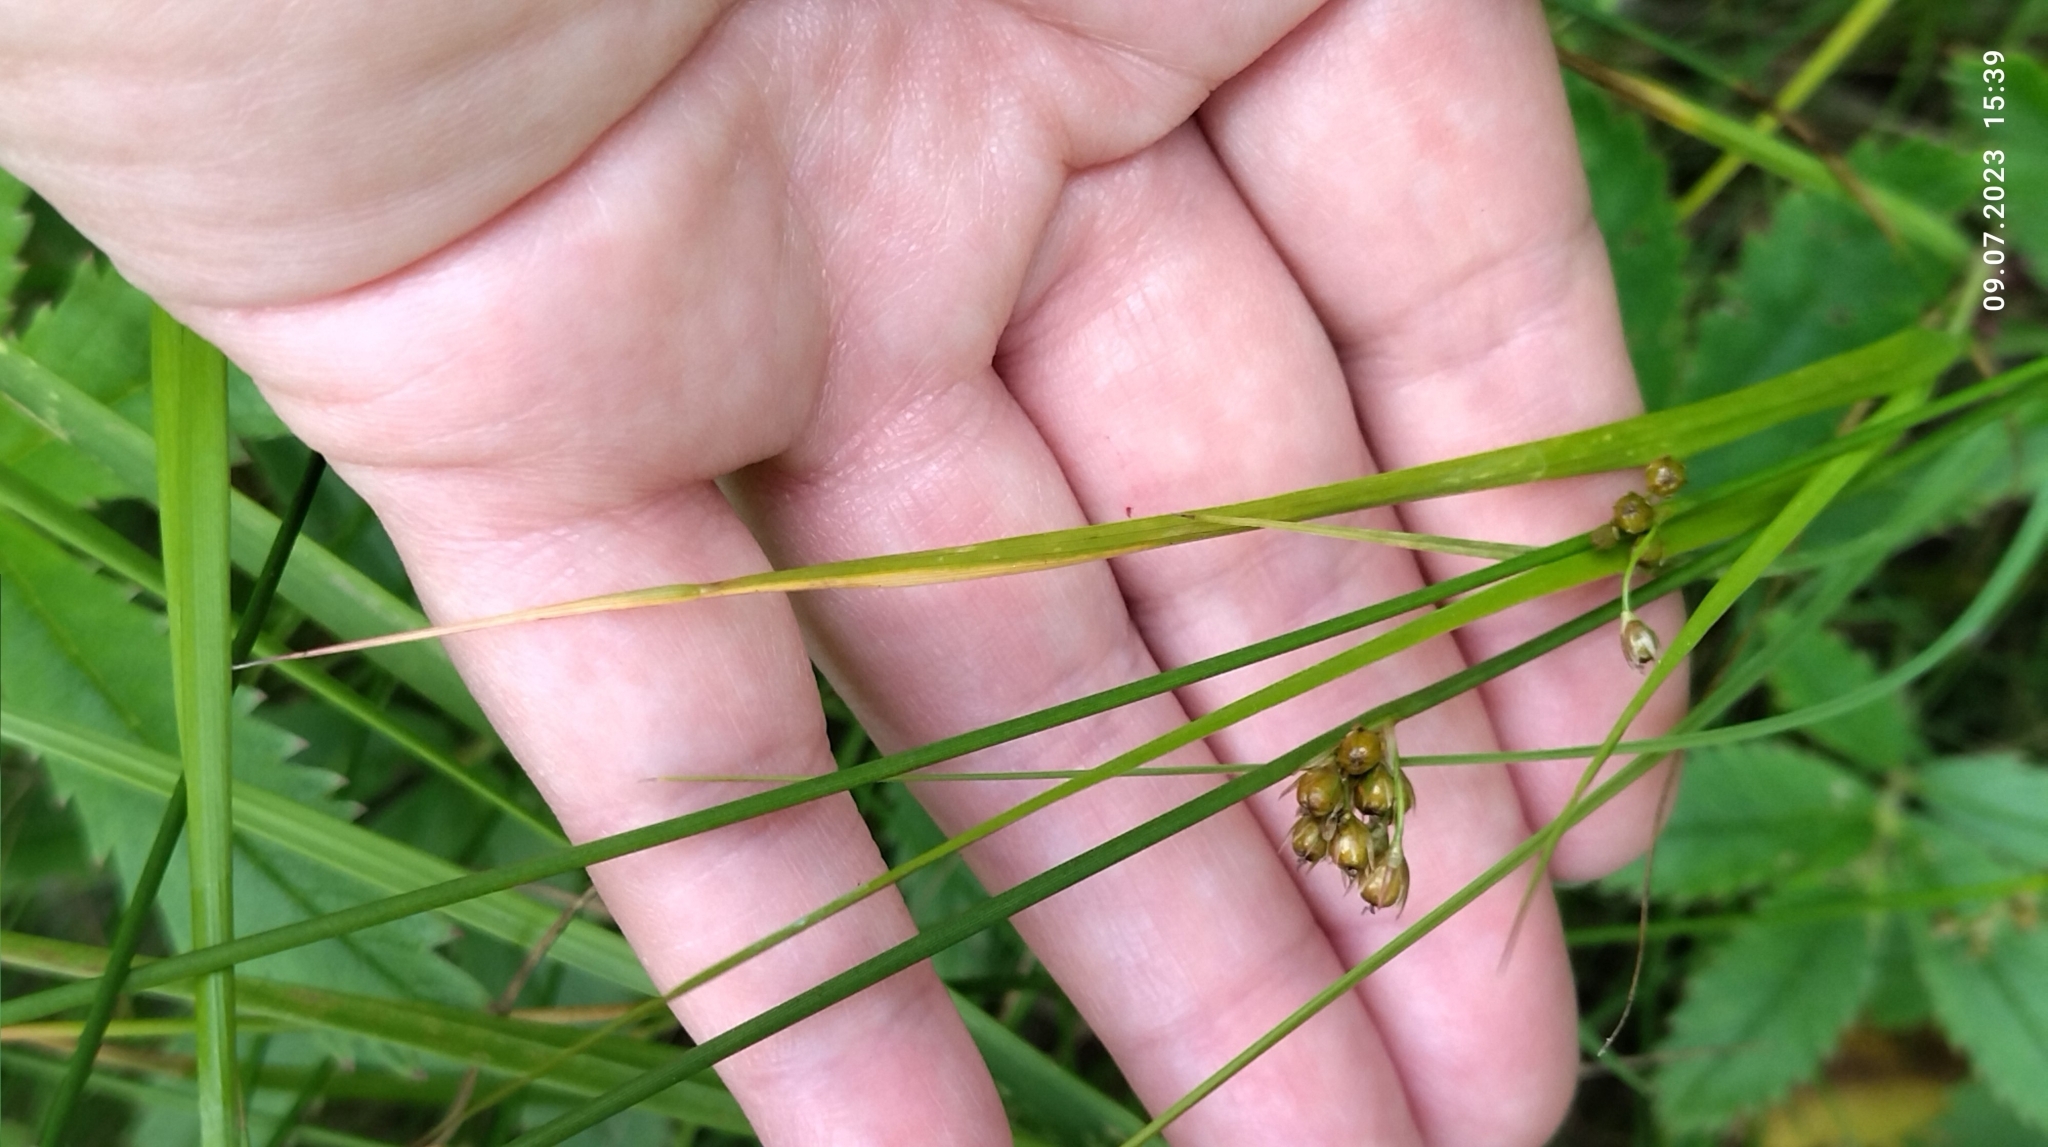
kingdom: Plantae
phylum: Tracheophyta
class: Liliopsida
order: Poales
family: Juncaceae
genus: Juncus
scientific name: Juncus filiformis
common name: Thread rush
